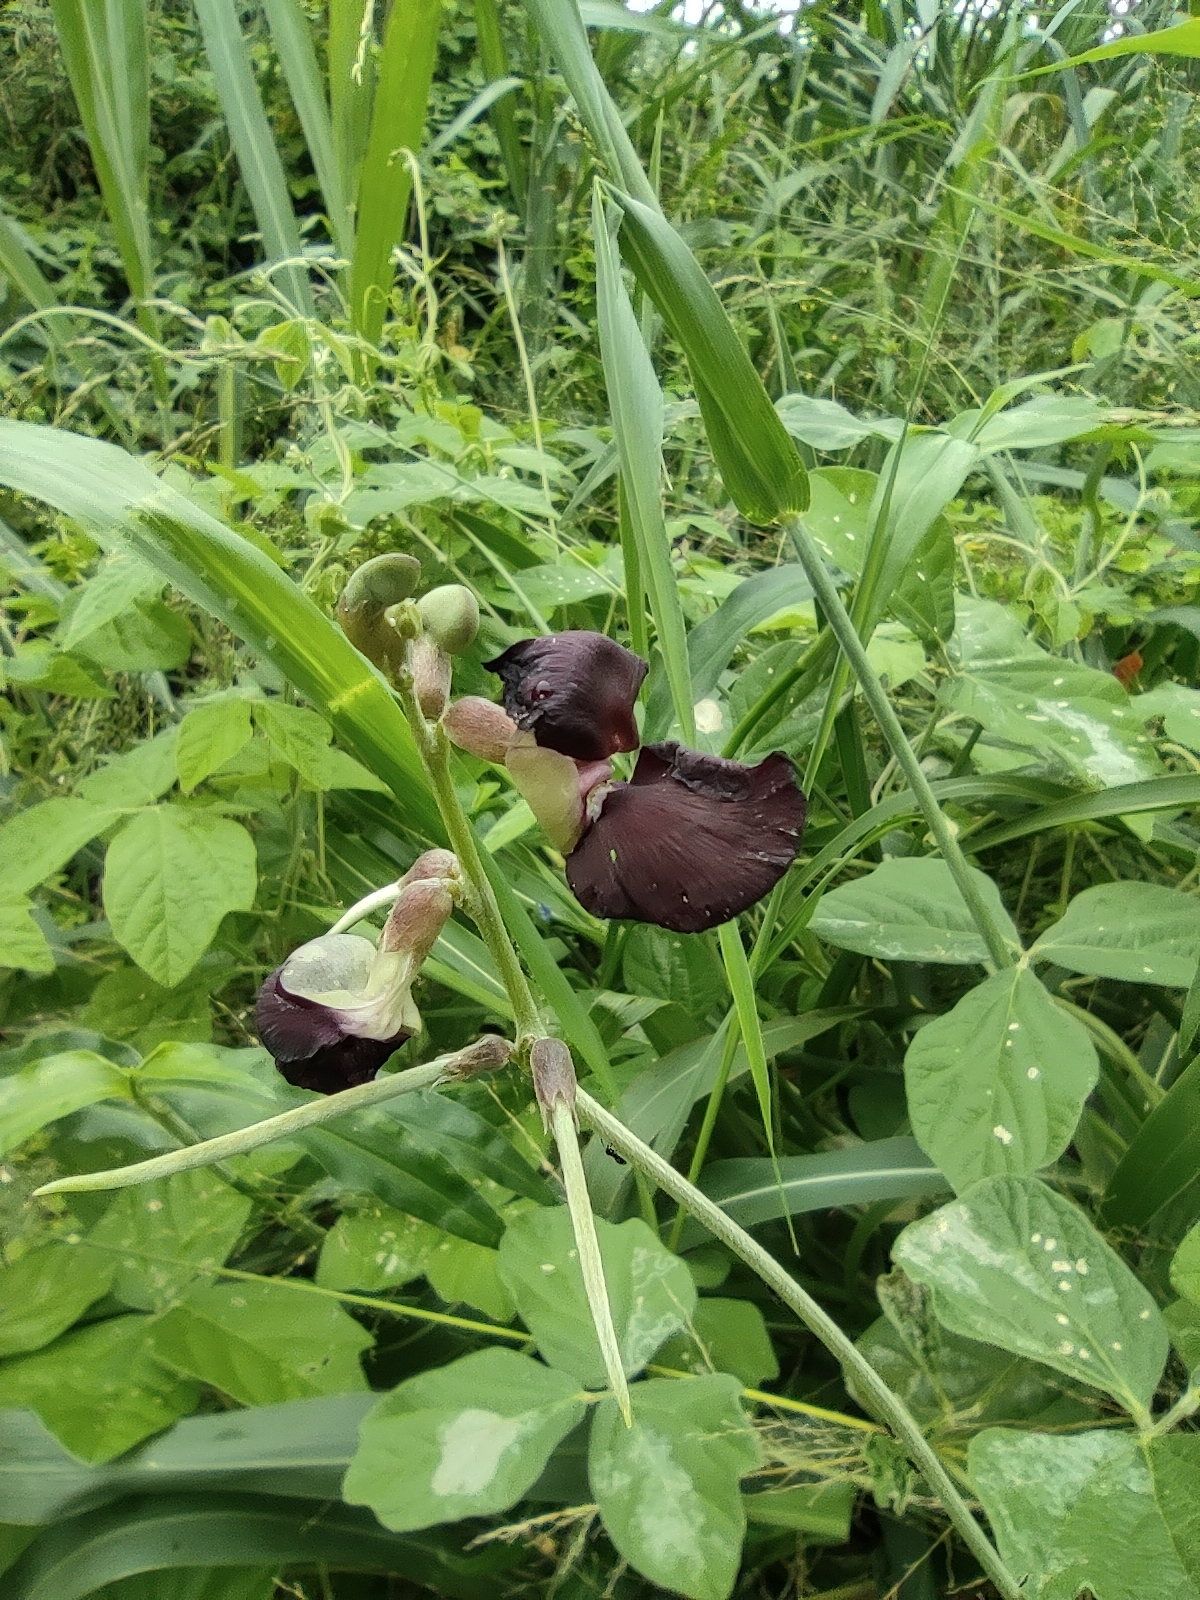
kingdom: Plantae
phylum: Tracheophyta
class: Magnoliopsida
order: Fabales
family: Fabaceae
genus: Macroptilium
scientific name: Macroptilium atropurpureum
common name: Purple bushbean
